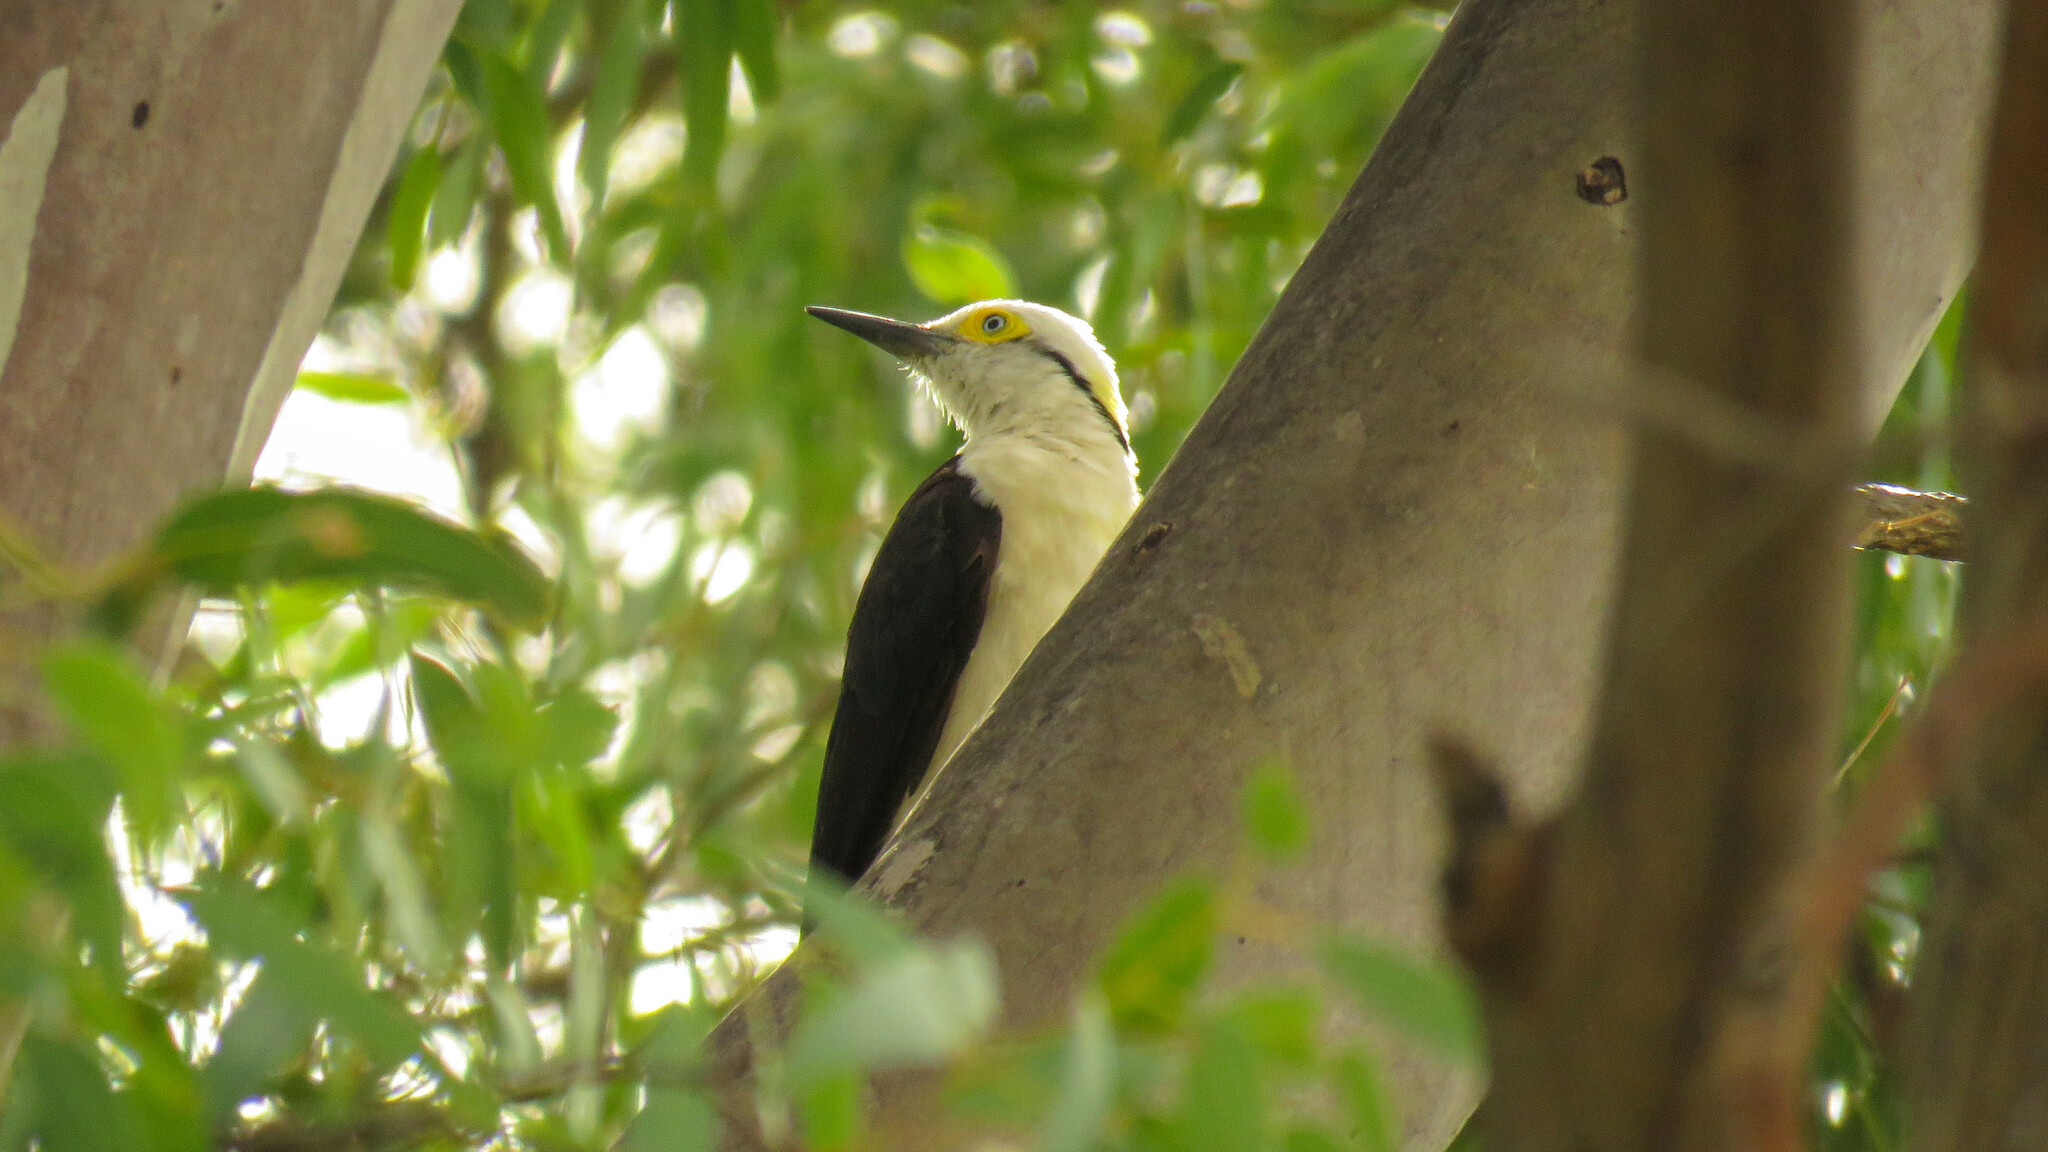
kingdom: Animalia
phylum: Chordata
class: Aves
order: Piciformes
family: Picidae
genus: Melanerpes
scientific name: Melanerpes candidus
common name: White woodpecker
